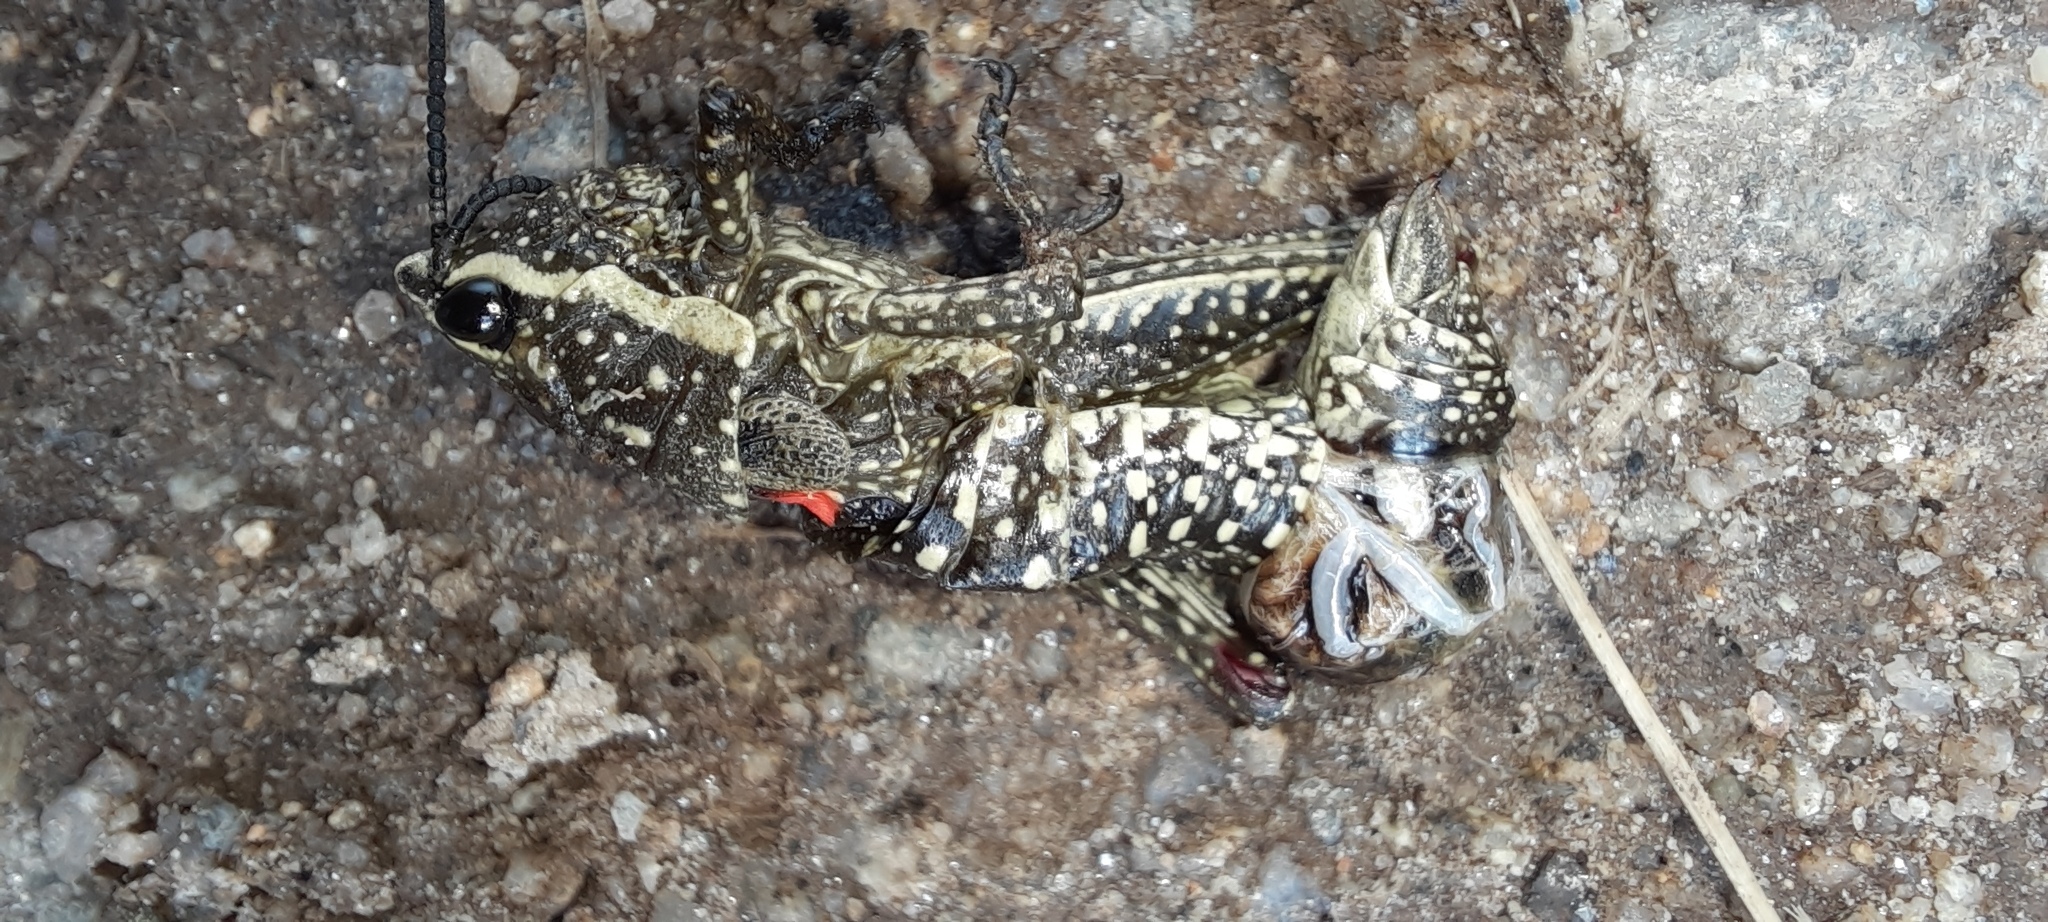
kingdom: Animalia
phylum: Arthropoda
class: Insecta
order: Orthoptera
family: Pyrgomorphidae
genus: Monistria
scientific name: Monistria concinna
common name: Southern pyrgomorph
